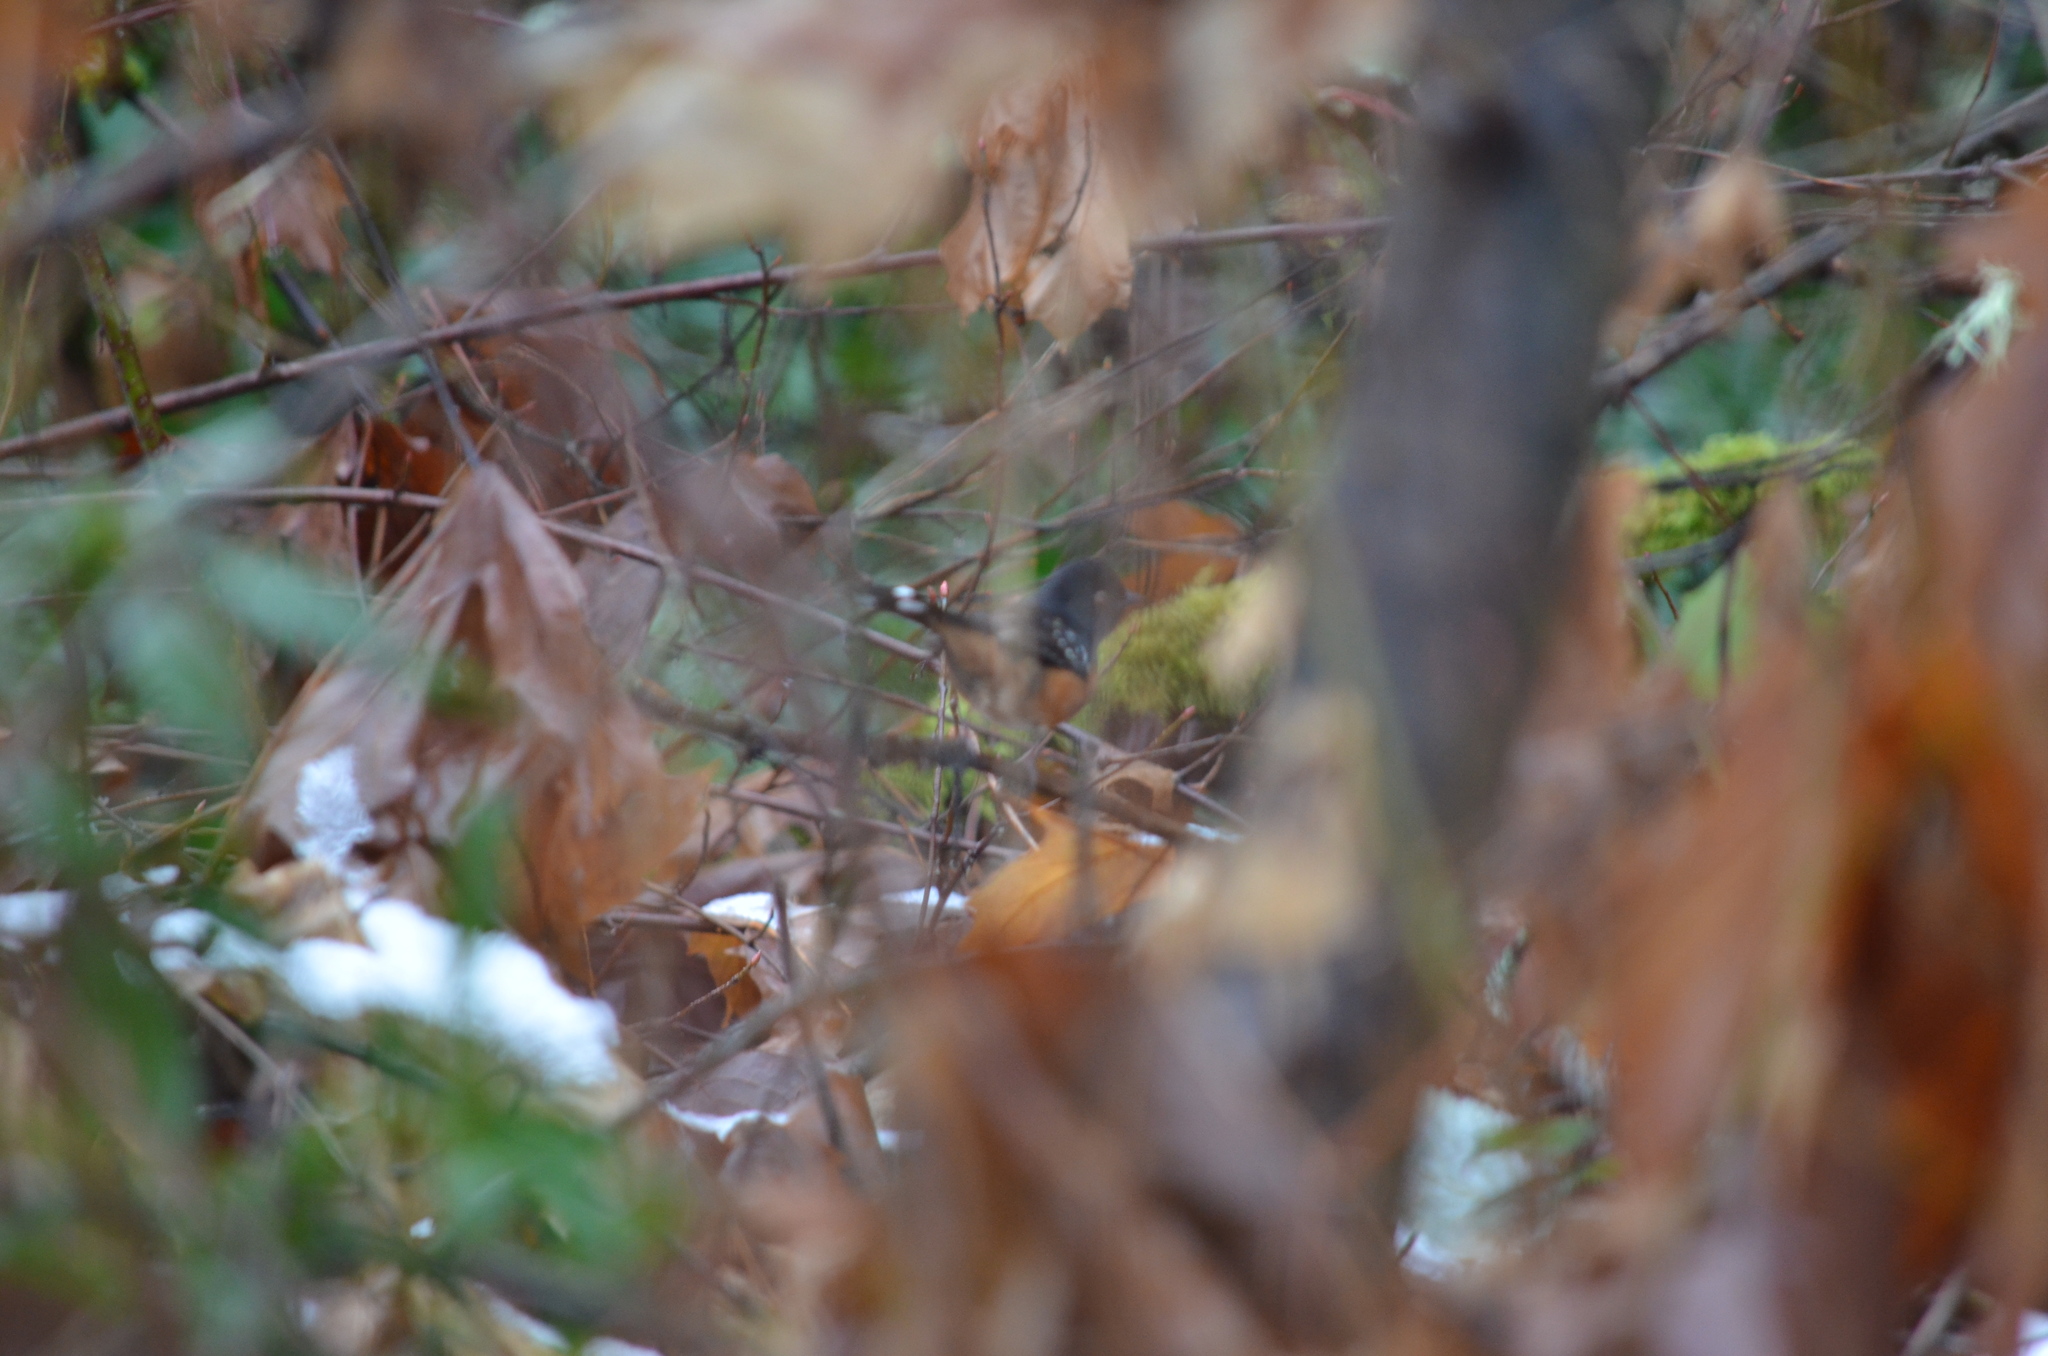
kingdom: Animalia
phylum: Chordata
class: Aves
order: Passeriformes
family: Passerellidae
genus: Pipilo
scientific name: Pipilo maculatus
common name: Spotted towhee
